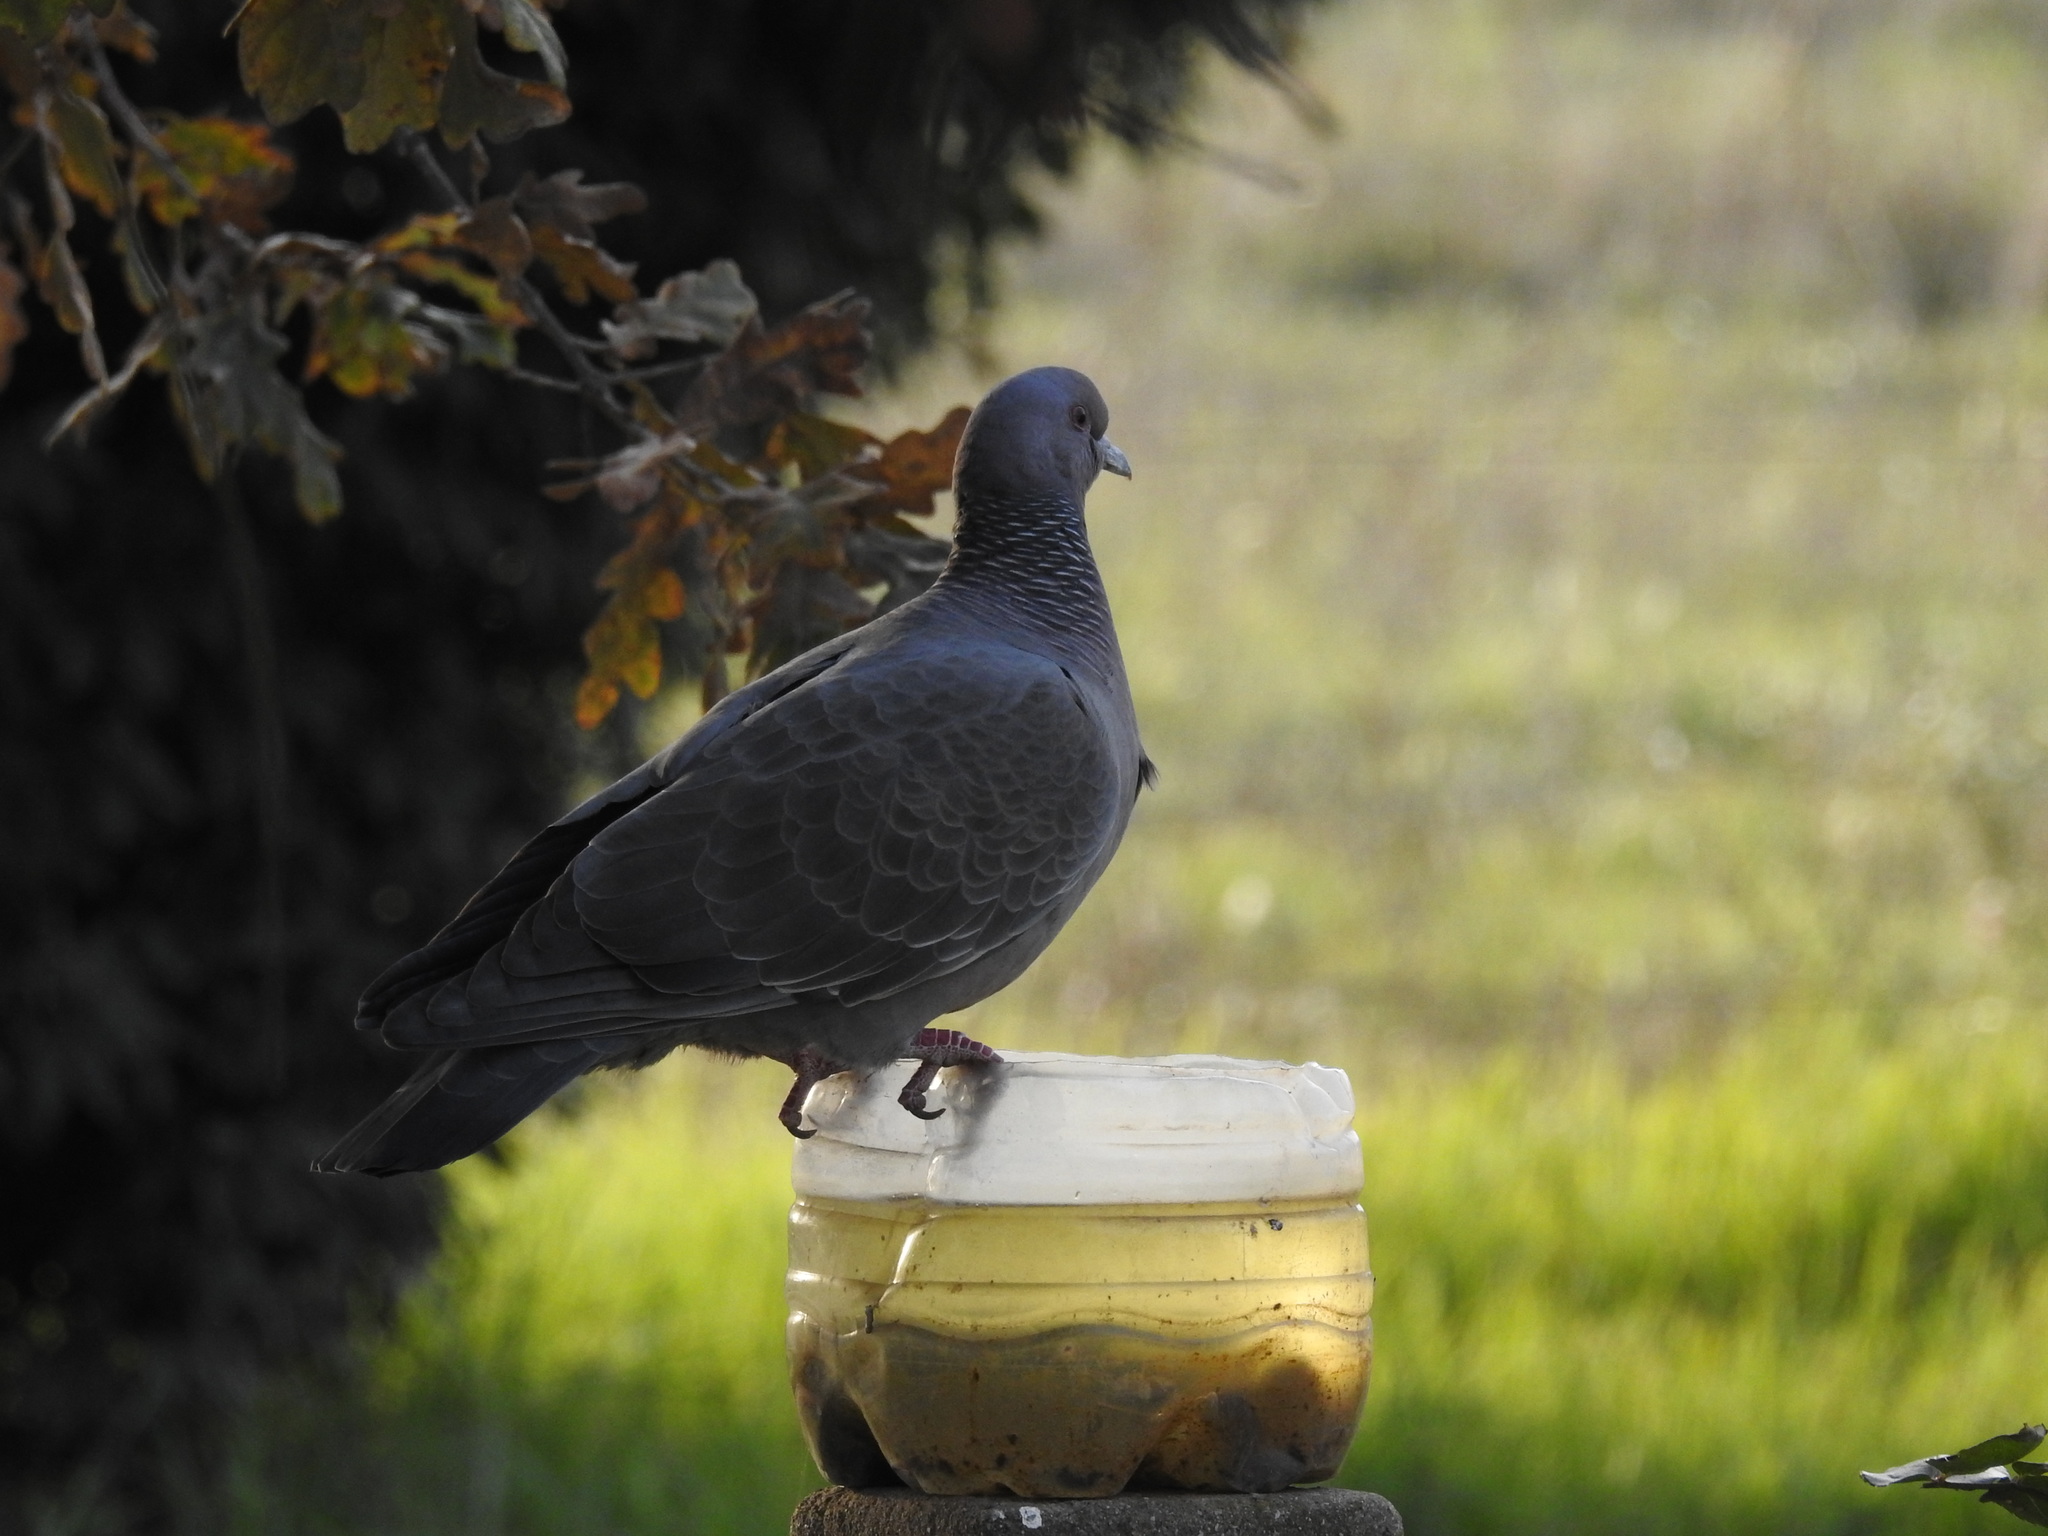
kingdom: Animalia
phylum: Chordata
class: Aves
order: Columbiformes
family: Columbidae
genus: Patagioenas
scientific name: Patagioenas picazuro
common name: Picazuro pigeon
